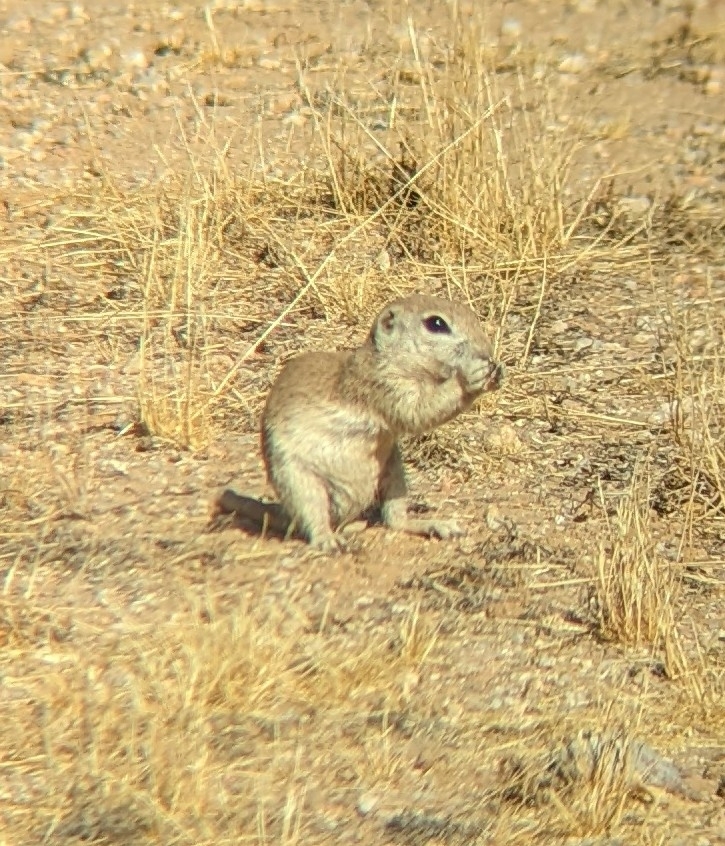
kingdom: Animalia
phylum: Chordata
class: Mammalia
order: Rodentia
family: Sciuridae
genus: Xerospermophilus
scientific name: Xerospermophilus tereticaudus
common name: Round-tailed ground squirrel
